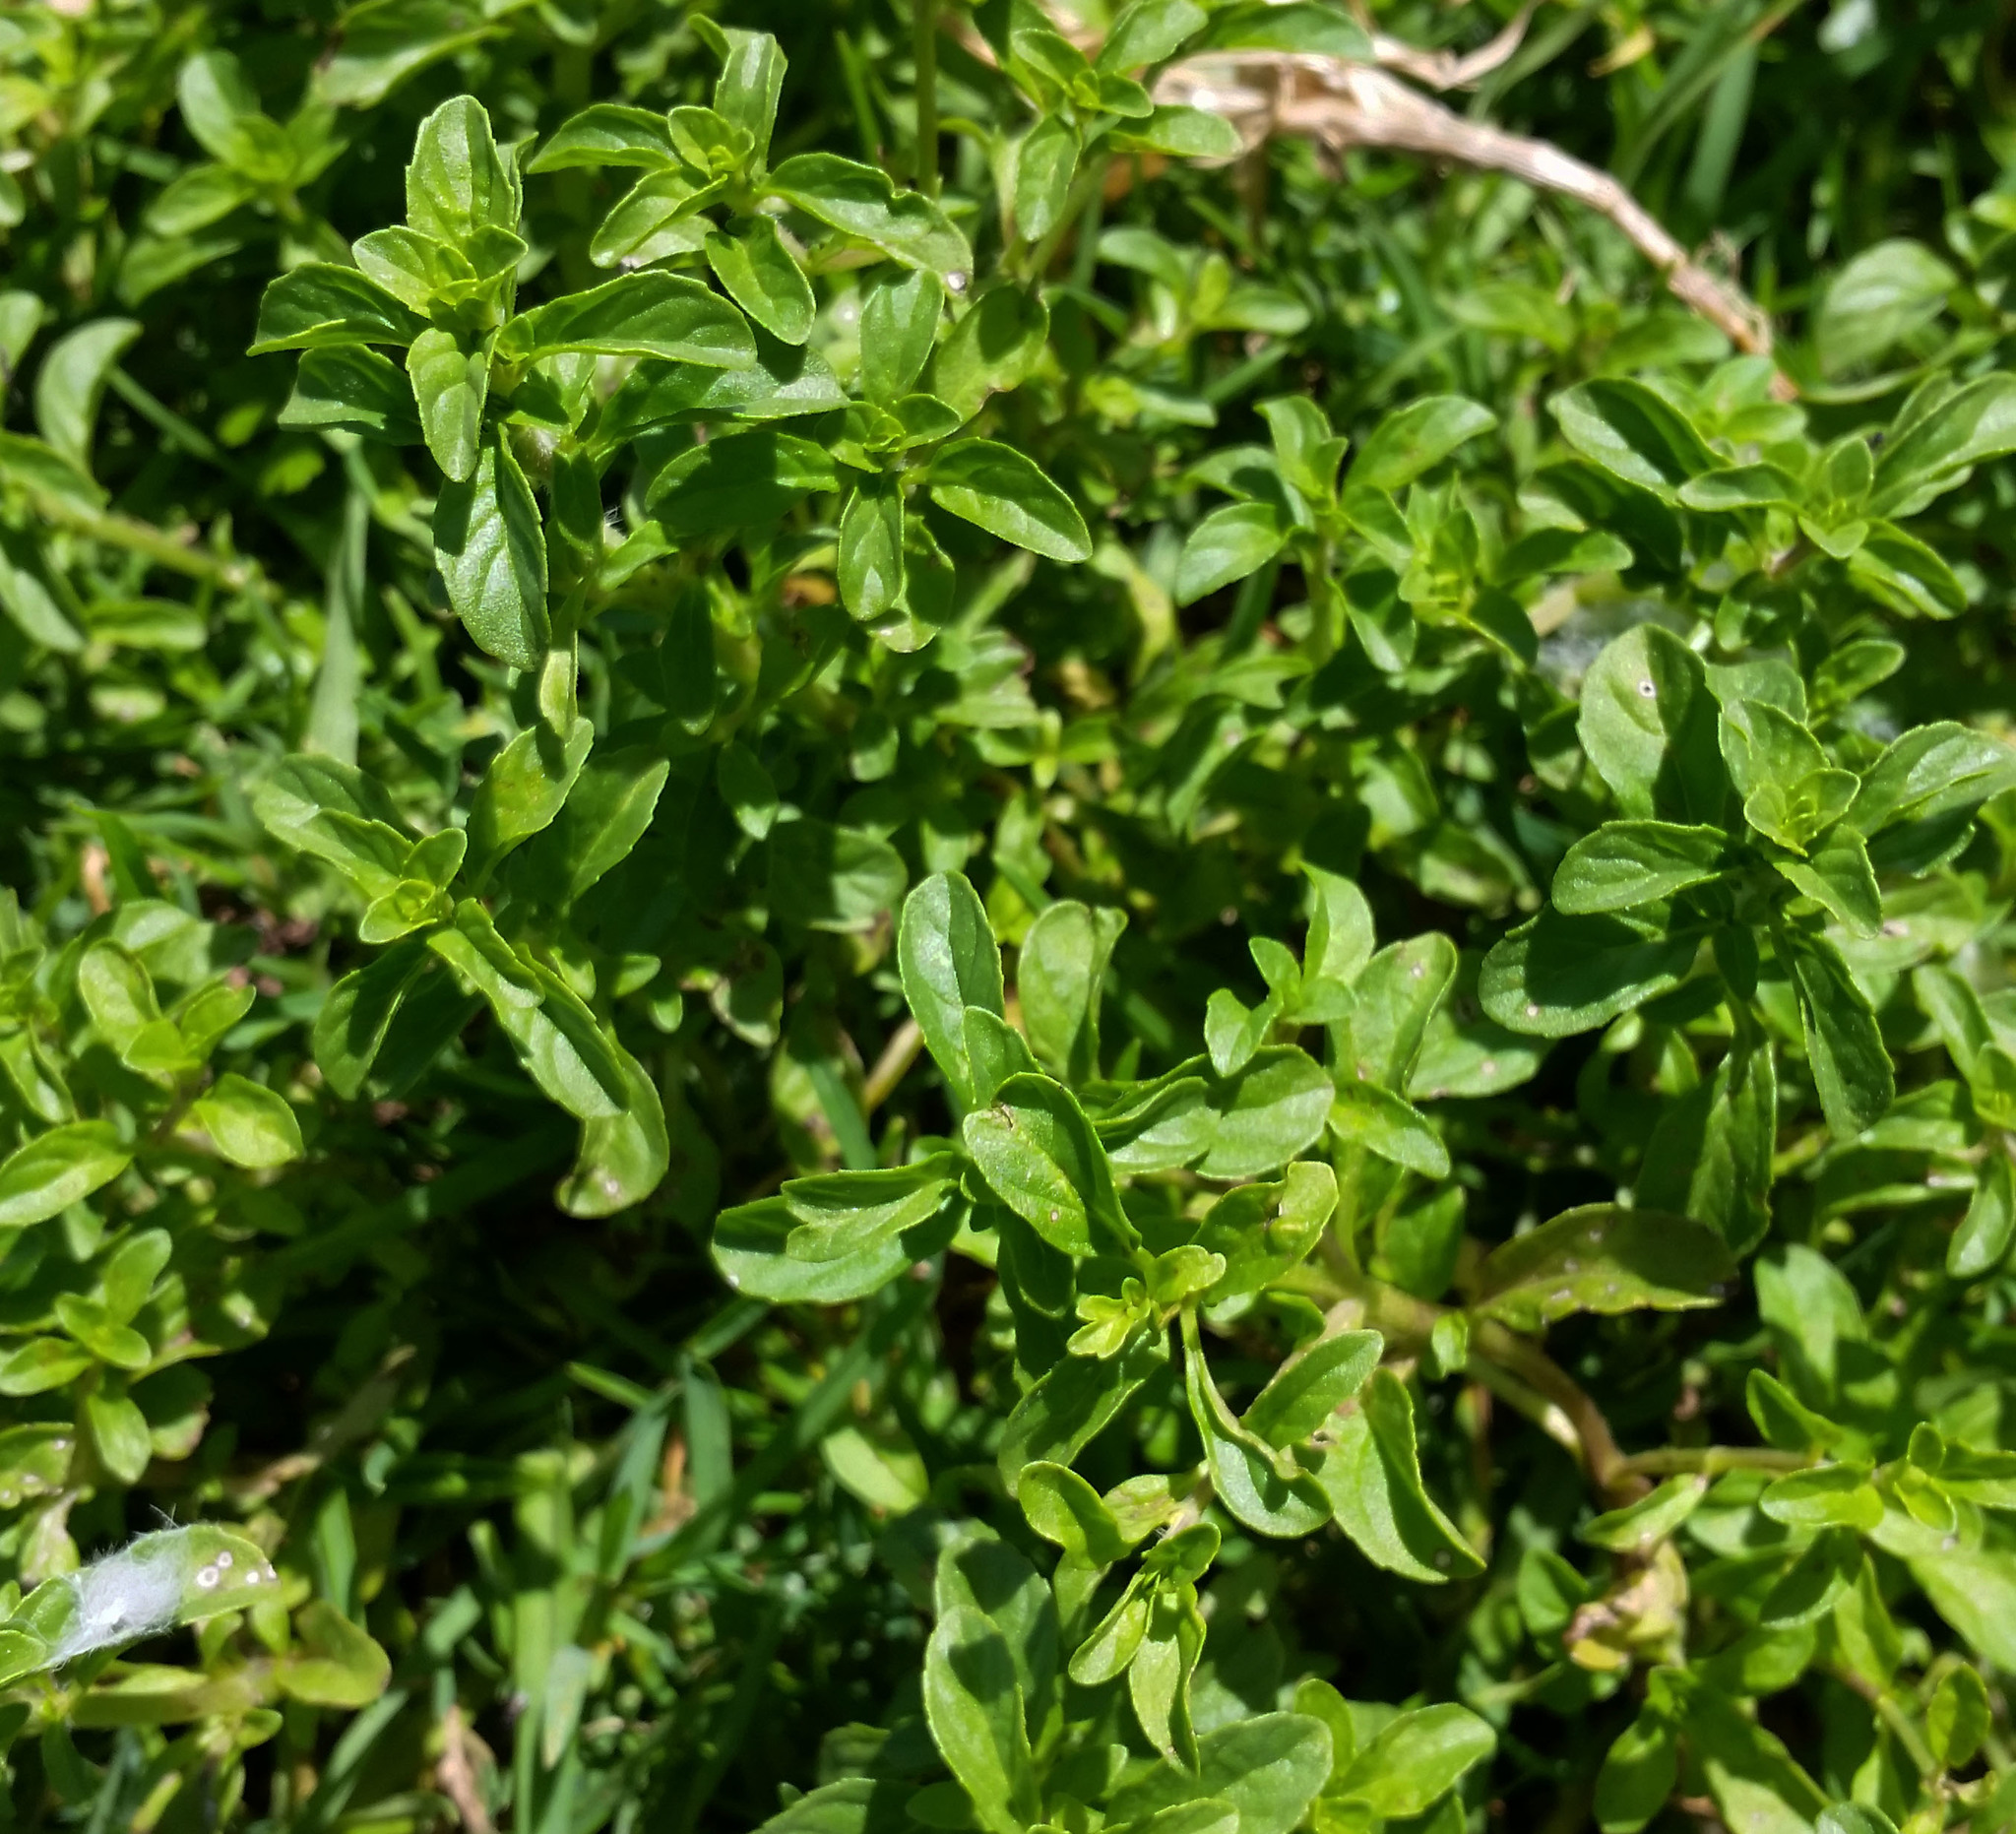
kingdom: Plantae
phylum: Tracheophyta
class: Magnoliopsida
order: Lamiales
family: Lamiaceae
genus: Mentha
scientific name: Mentha pulegium
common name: Pennyroyal
